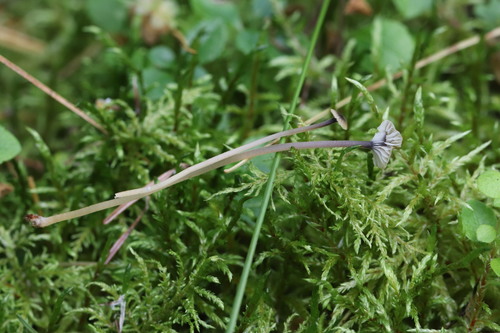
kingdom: Fungi
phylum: Basidiomycota
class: Agaricomycetes
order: Hymenochaetales
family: Rickenellaceae
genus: Rickenella
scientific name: Rickenella swartzii
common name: Collared mosscap
